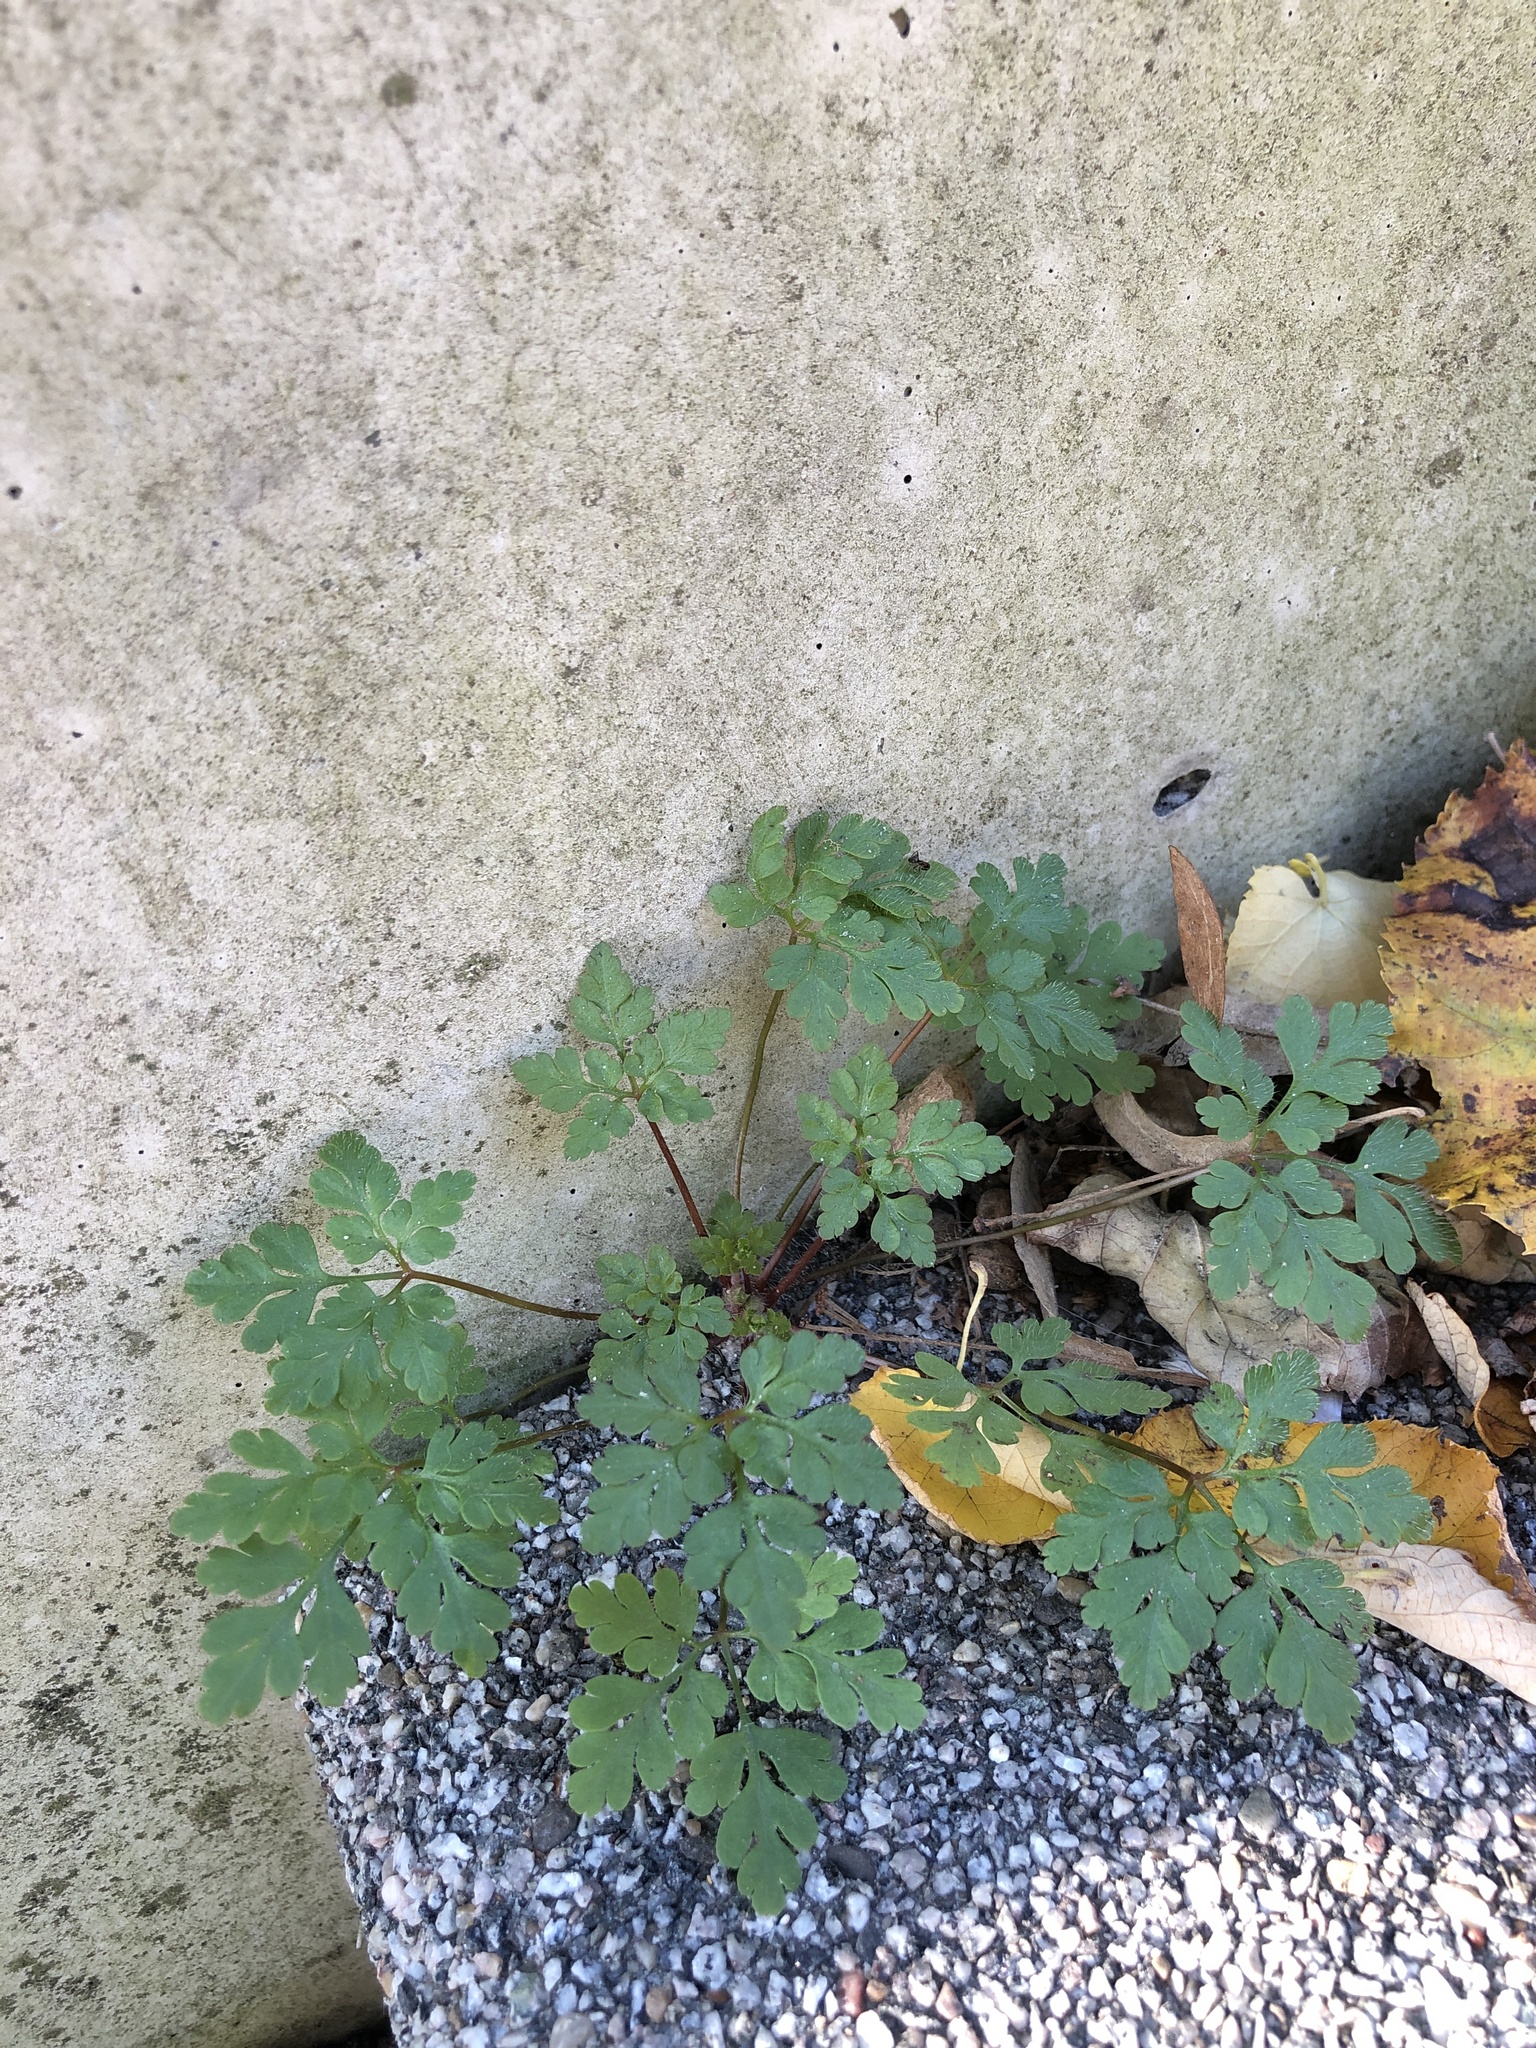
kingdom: Plantae
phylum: Tracheophyta
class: Magnoliopsida
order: Geraniales
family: Geraniaceae
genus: Geranium
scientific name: Geranium robertianum
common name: Herb-robert
